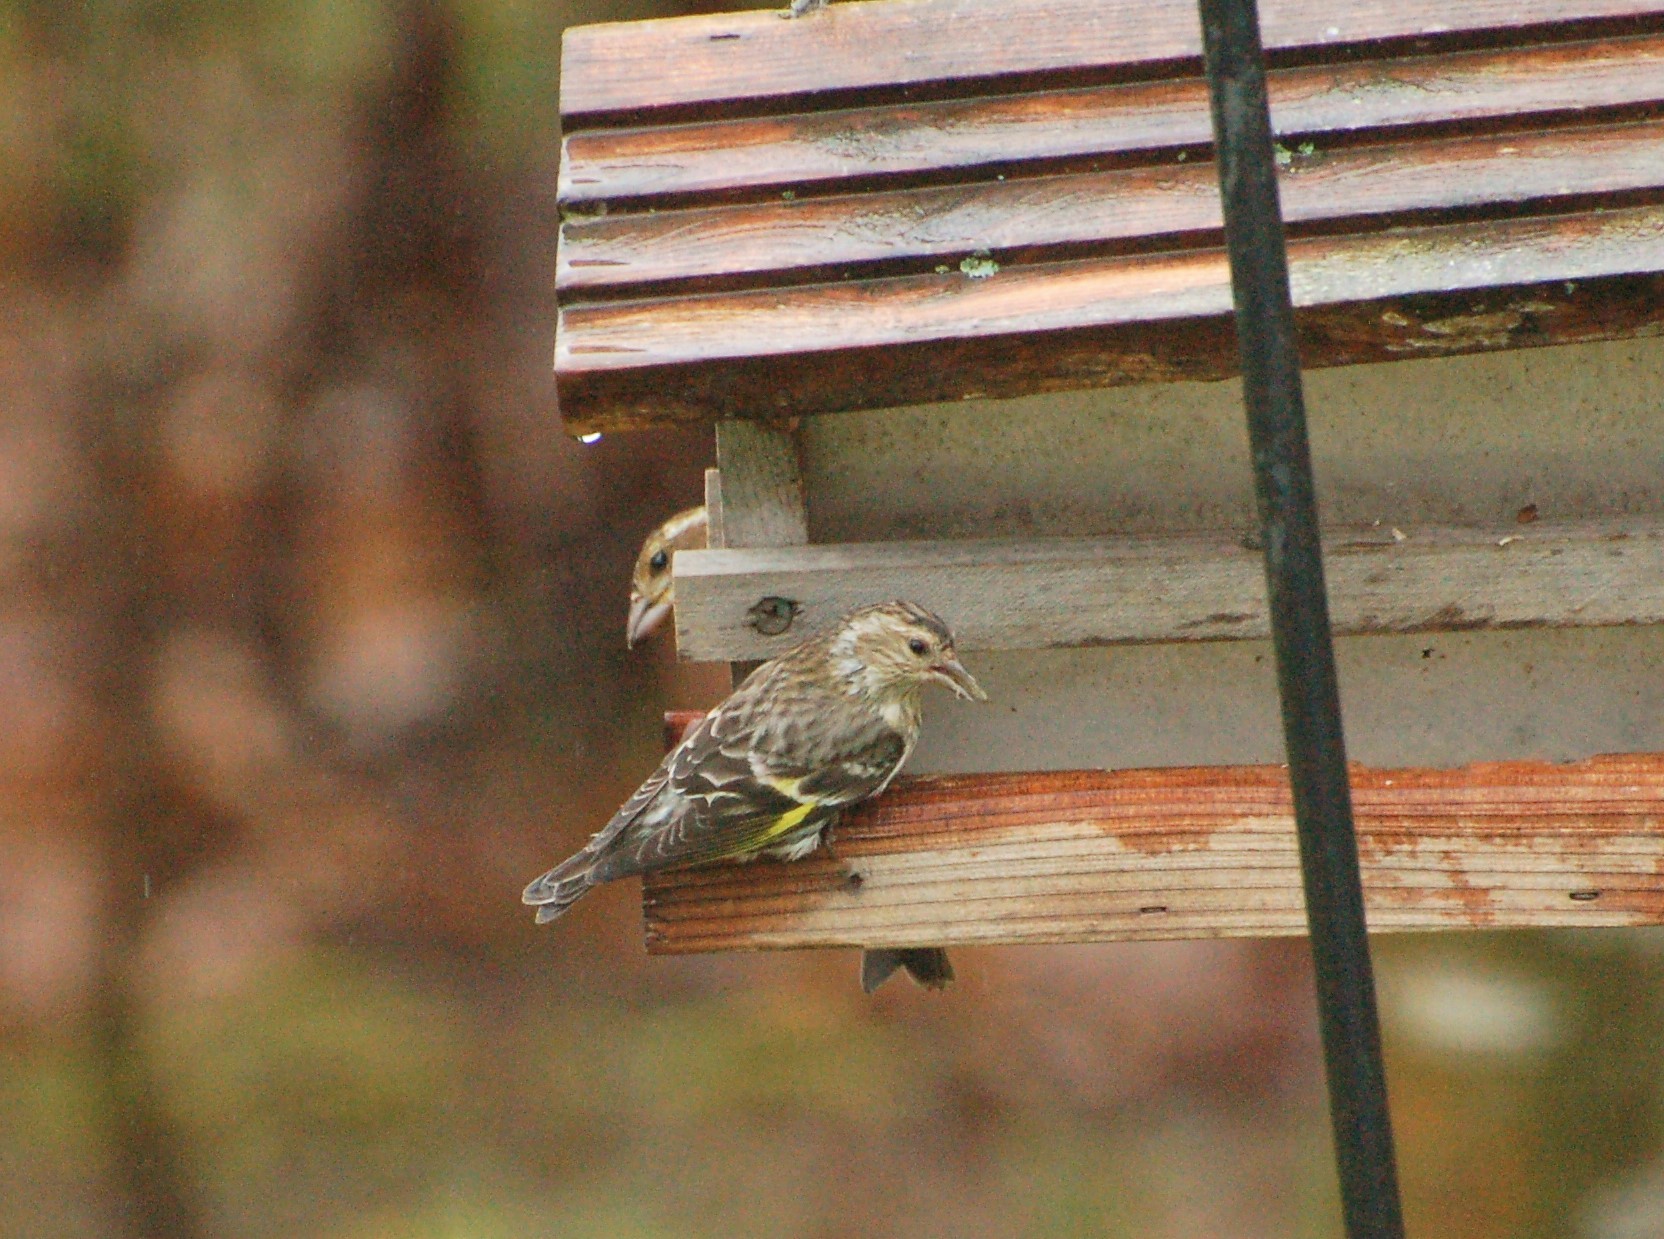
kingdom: Animalia
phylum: Chordata
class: Aves
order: Passeriformes
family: Fringillidae
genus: Spinus
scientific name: Spinus pinus
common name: Pine siskin
